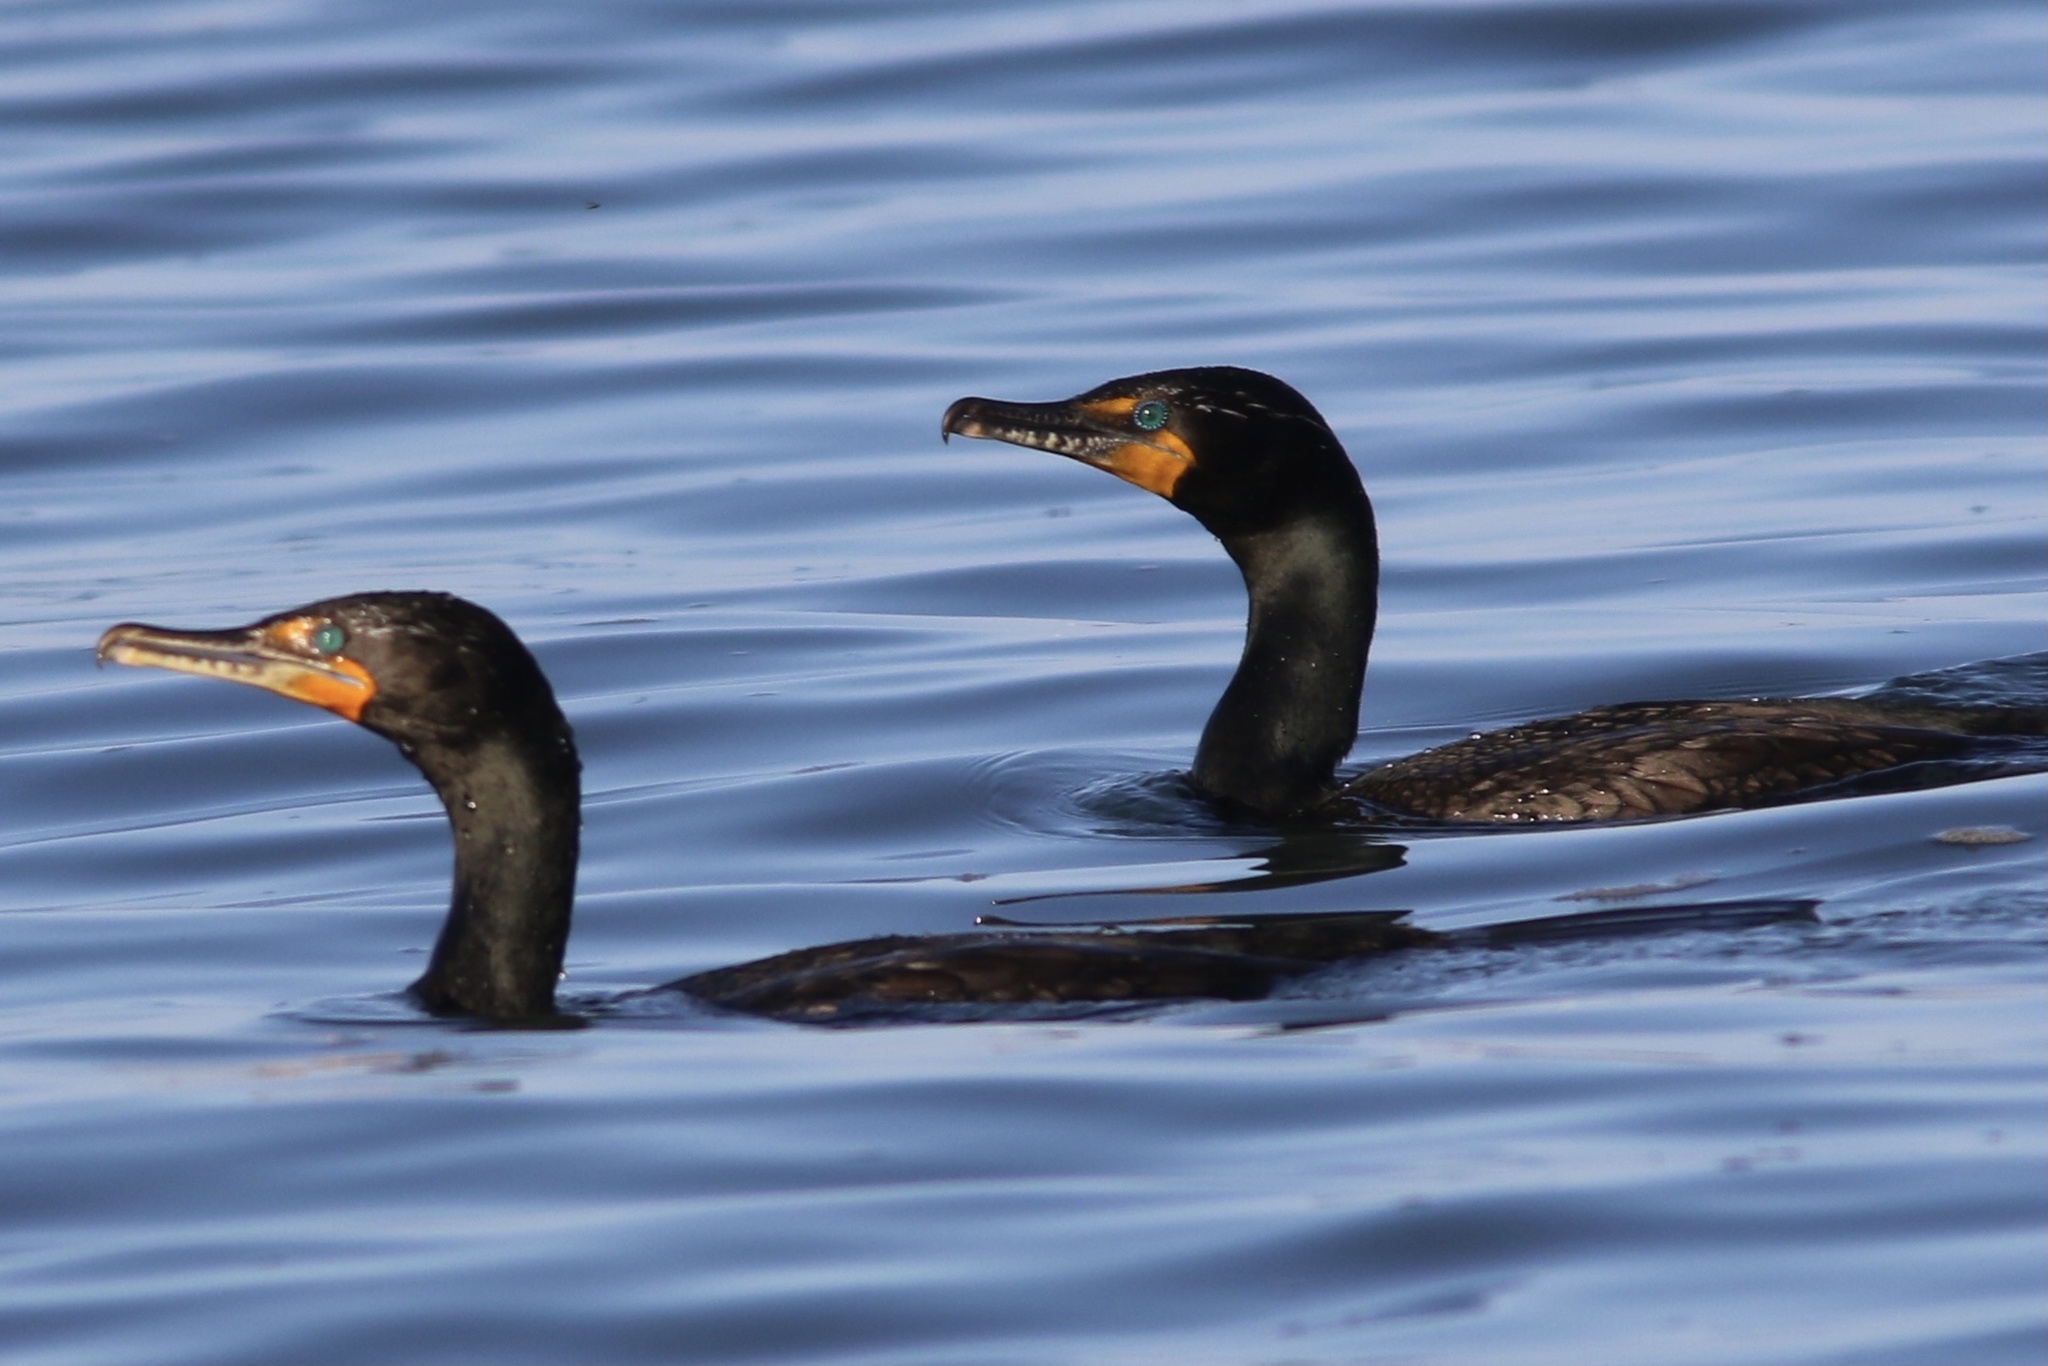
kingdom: Animalia
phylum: Chordata
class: Aves
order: Suliformes
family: Phalacrocoracidae
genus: Phalacrocorax
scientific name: Phalacrocorax auritus
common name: Double-crested cormorant
